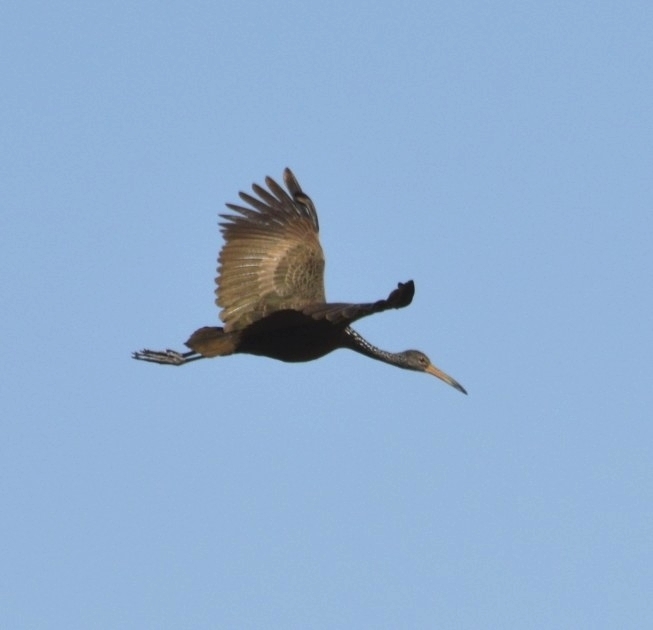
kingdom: Animalia
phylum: Chordata
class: Aves
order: Gruiformes
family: Aramidae
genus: Aramus
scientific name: Aramus guarauna
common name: Limpkin
